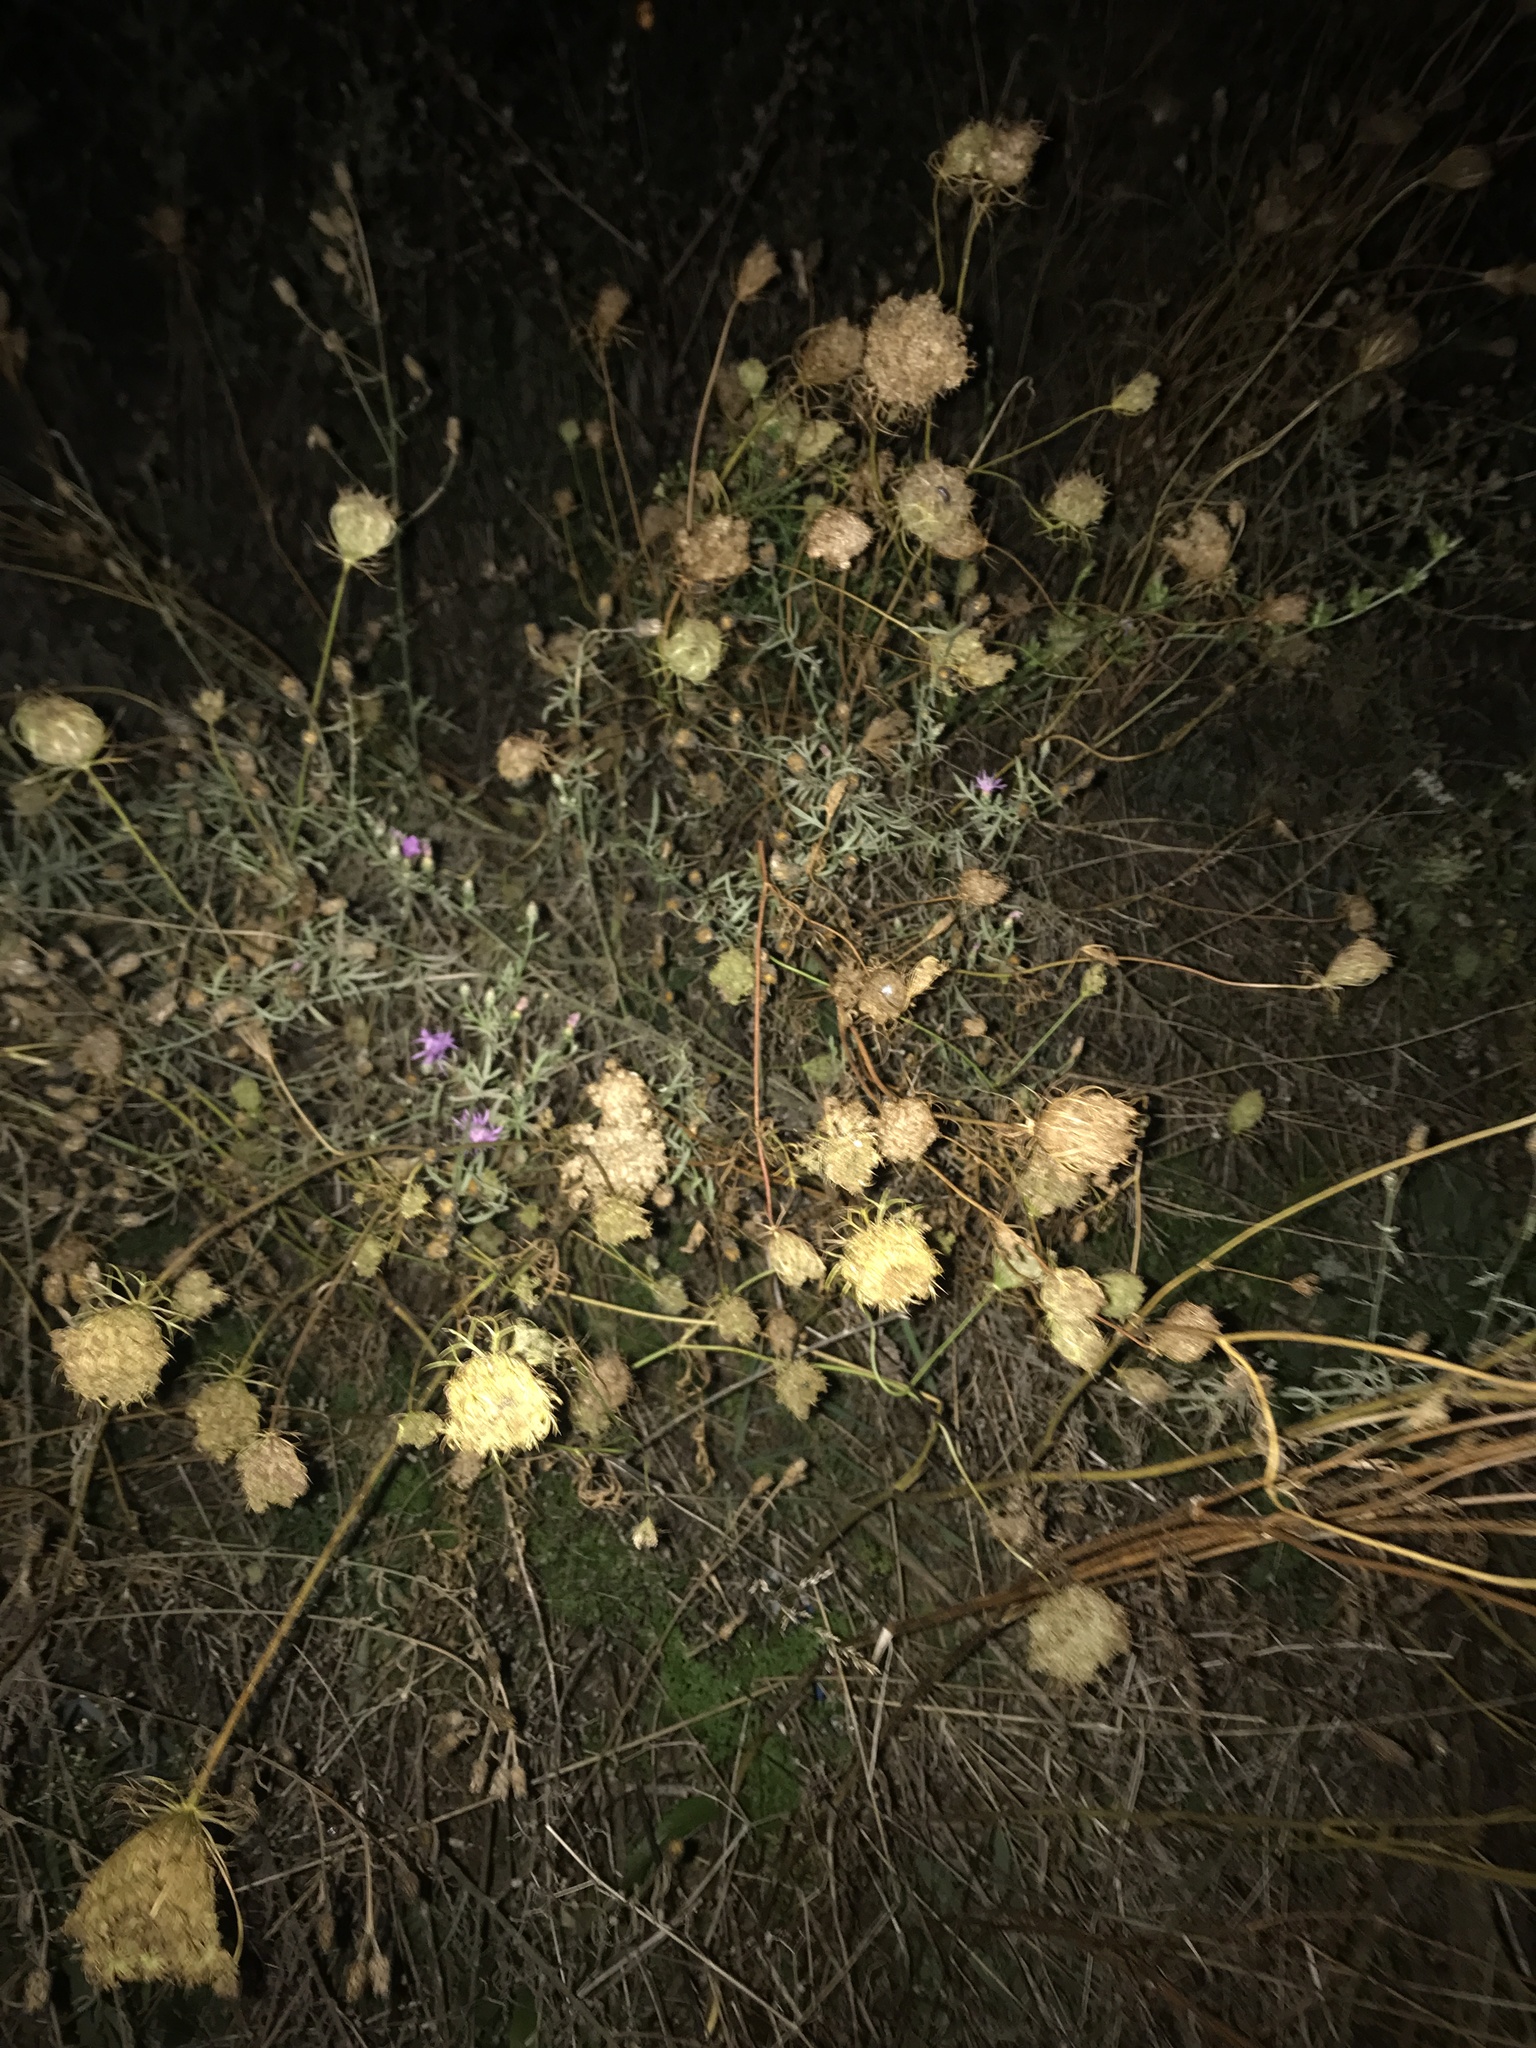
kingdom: Plantae
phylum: Tracheophyta
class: Magnoliopsida
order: Apiales
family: Apiaceae
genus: Daucus
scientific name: Daucus carota
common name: Wild carrot
